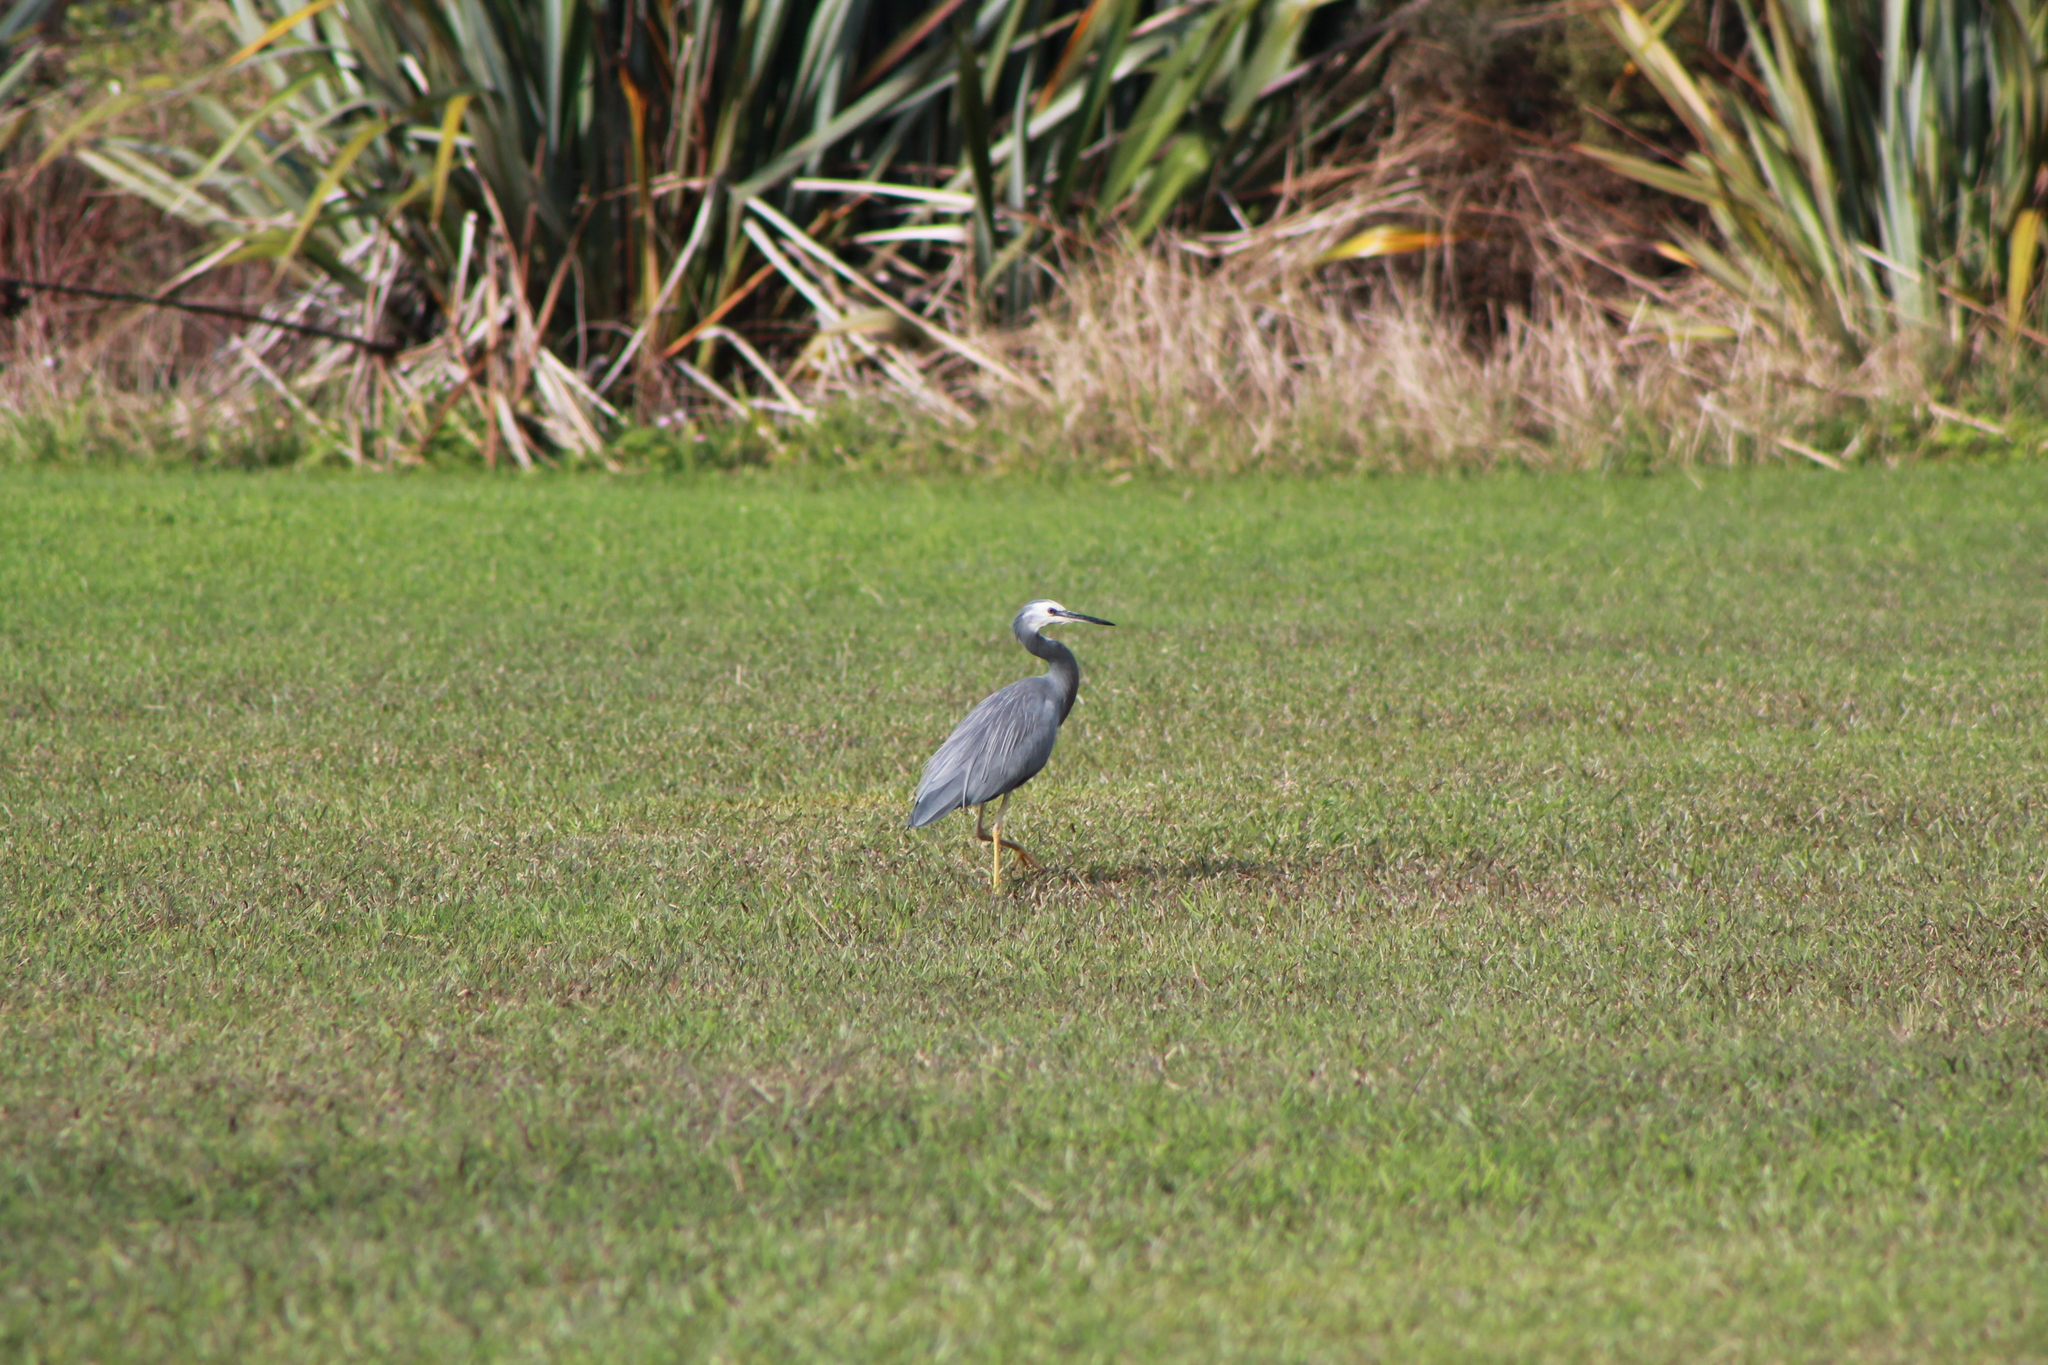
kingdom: Animalia
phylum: Chordata
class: Aves
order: Pelecaniformes
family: Ardeidae
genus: Egretta
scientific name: Egretta novaehollandiae
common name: White-faced heron
